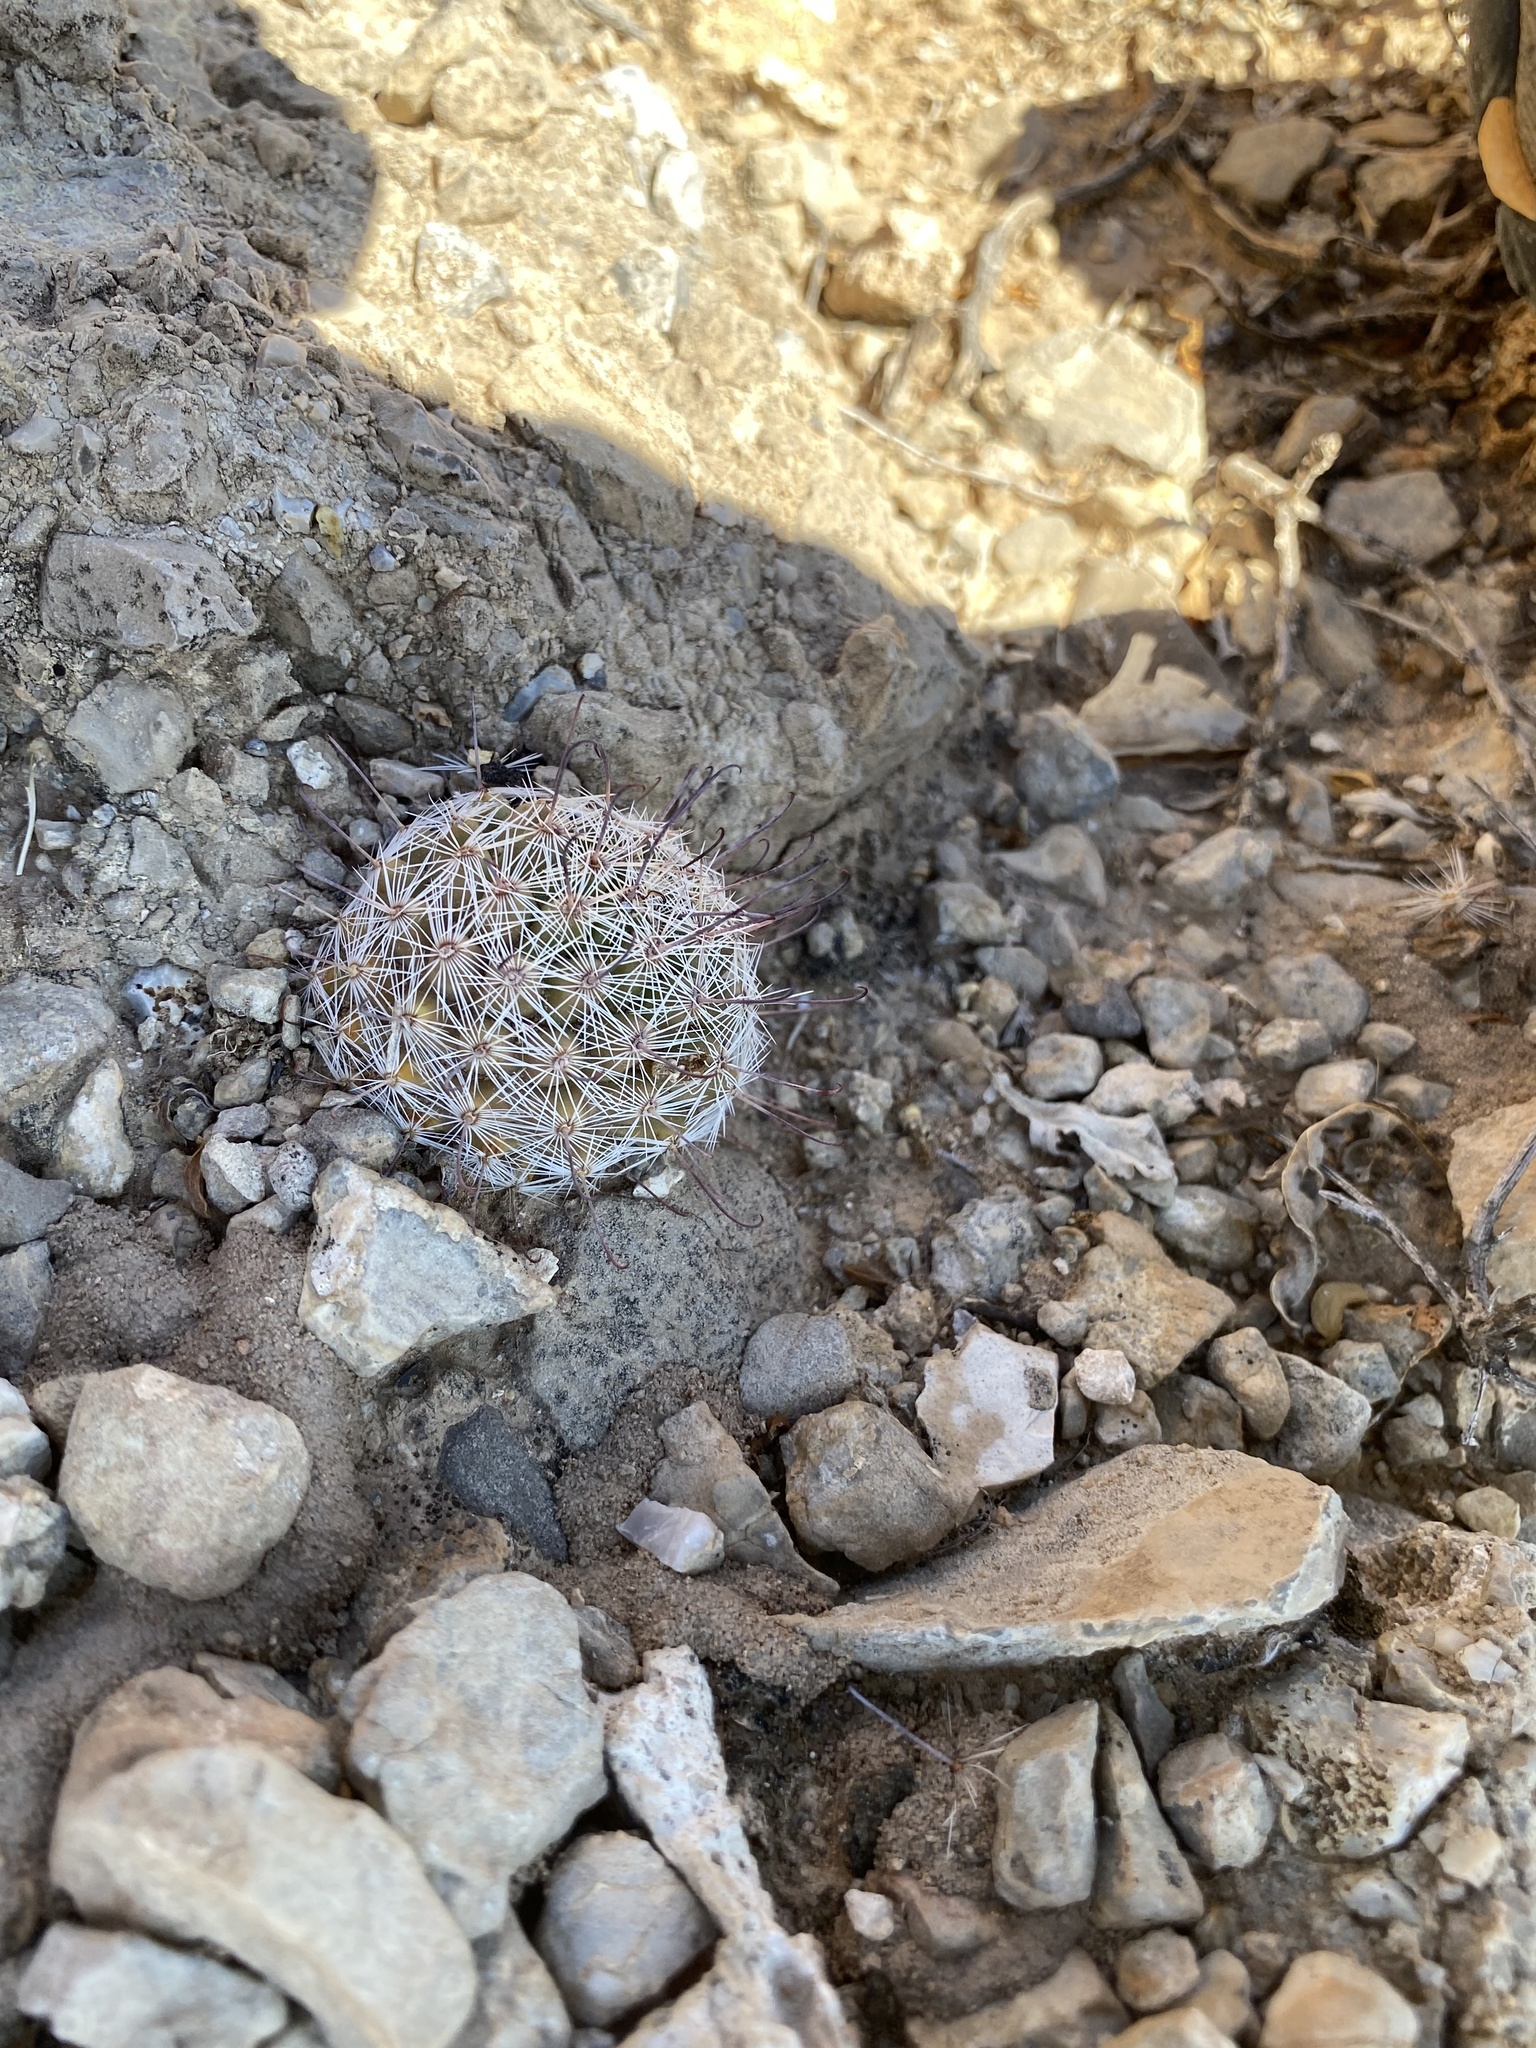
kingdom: Plantae
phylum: Tracheophyta
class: Magnoliopsida
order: Caryophyllales
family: Cactaceae
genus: Cochemiea
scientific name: Cochemiea grahamii
